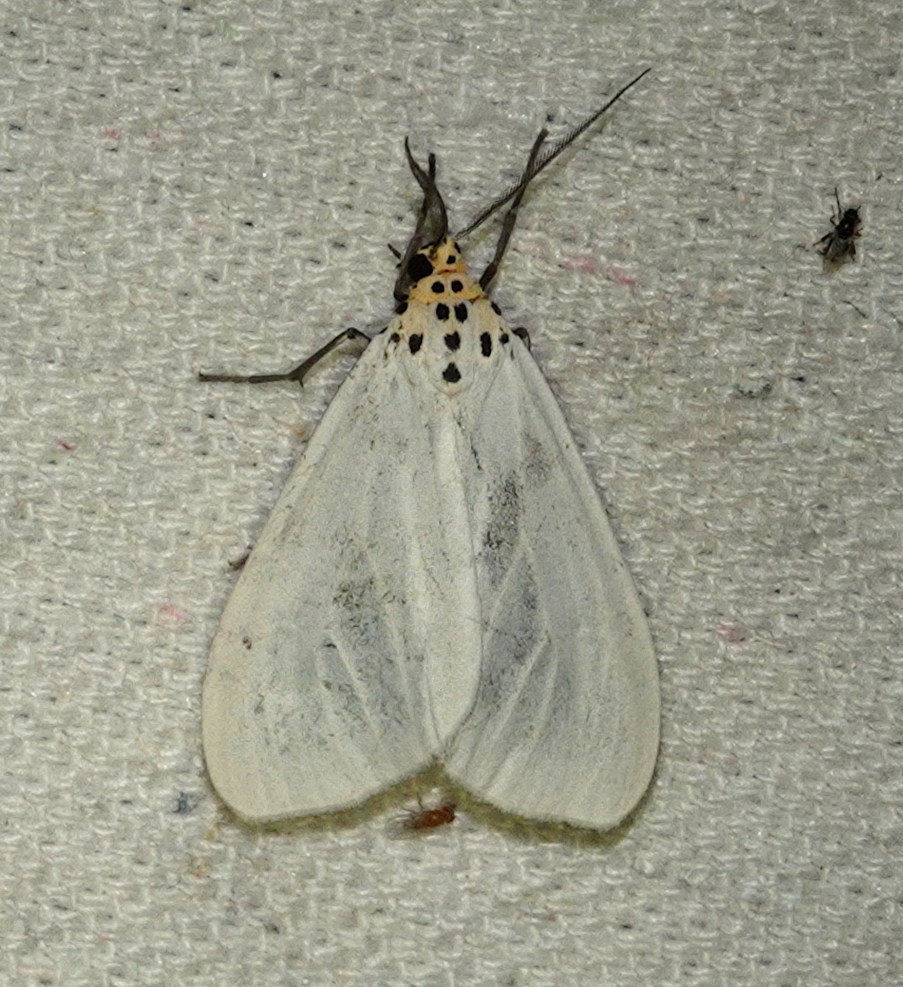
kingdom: Animalia
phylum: Arthropoda
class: Insecta
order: Lepidoptera
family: Erebidae
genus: Nyctemera
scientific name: Nyctemera alba
